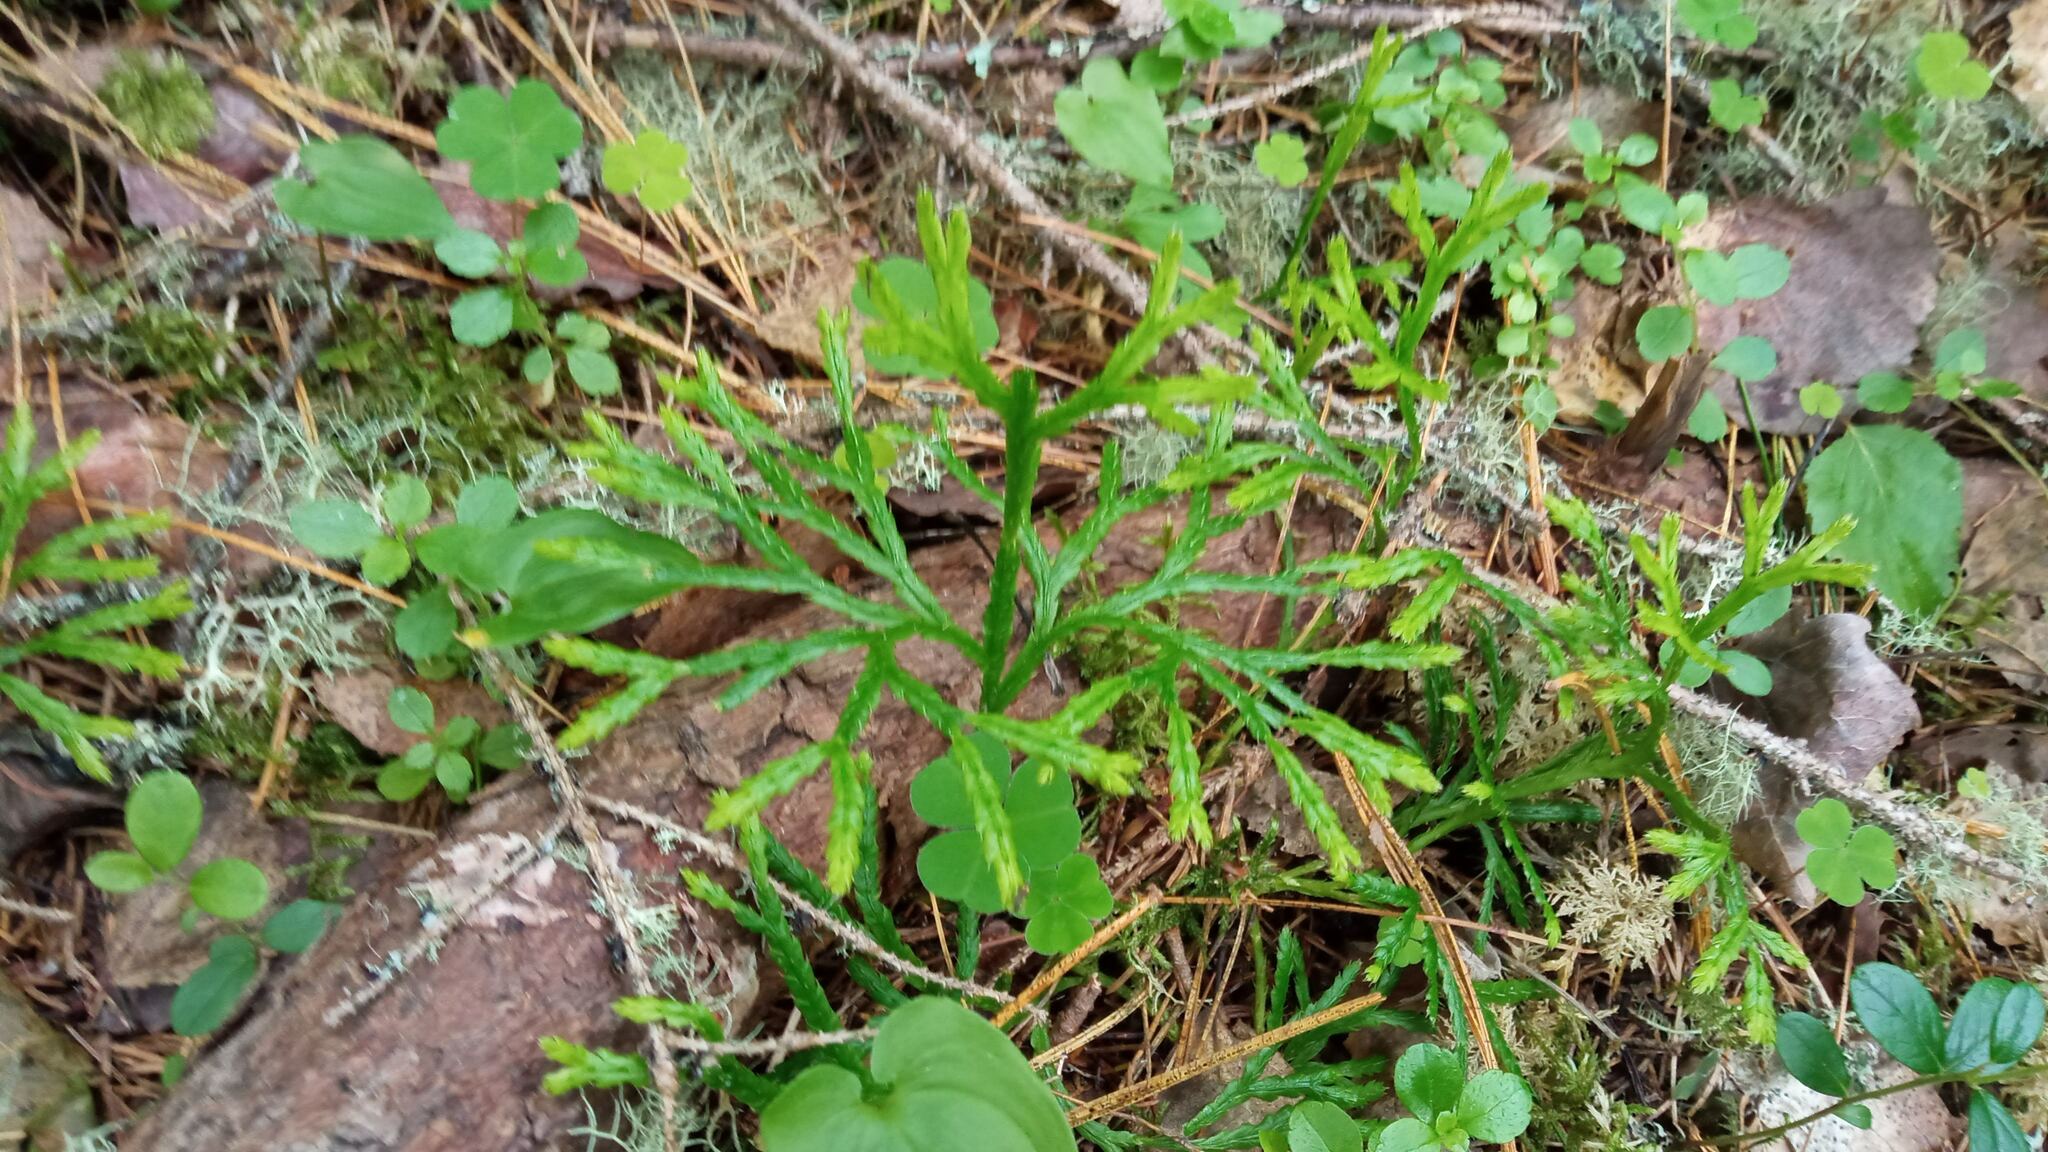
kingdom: Plantae
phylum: Tracheophyta
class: Lycopodiopsida
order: Lycopodiales
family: Lycopodiaceae
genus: Diphasiastrum
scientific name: Diphasiastrum complanatum
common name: Northern running-pine
